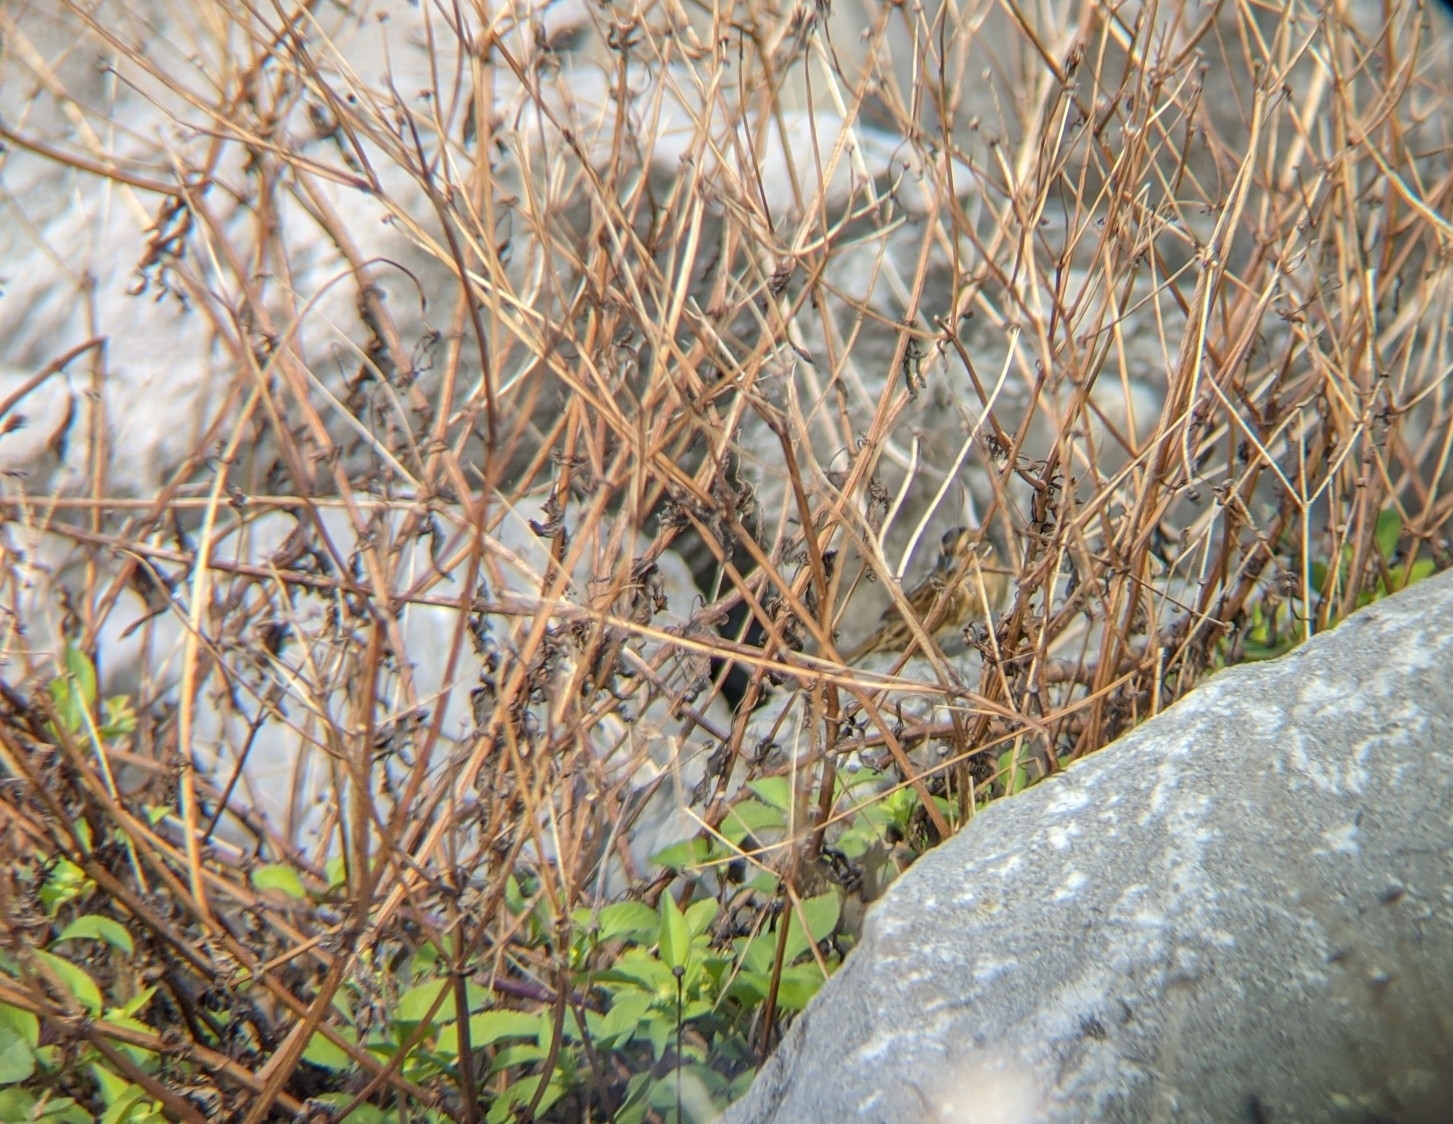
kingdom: Animalia
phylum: Chordata
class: Aves
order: Passeriformes
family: Passerellidae
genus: Ammospiza
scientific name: Ammospiza nelsoni
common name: Nelson's sparrow
